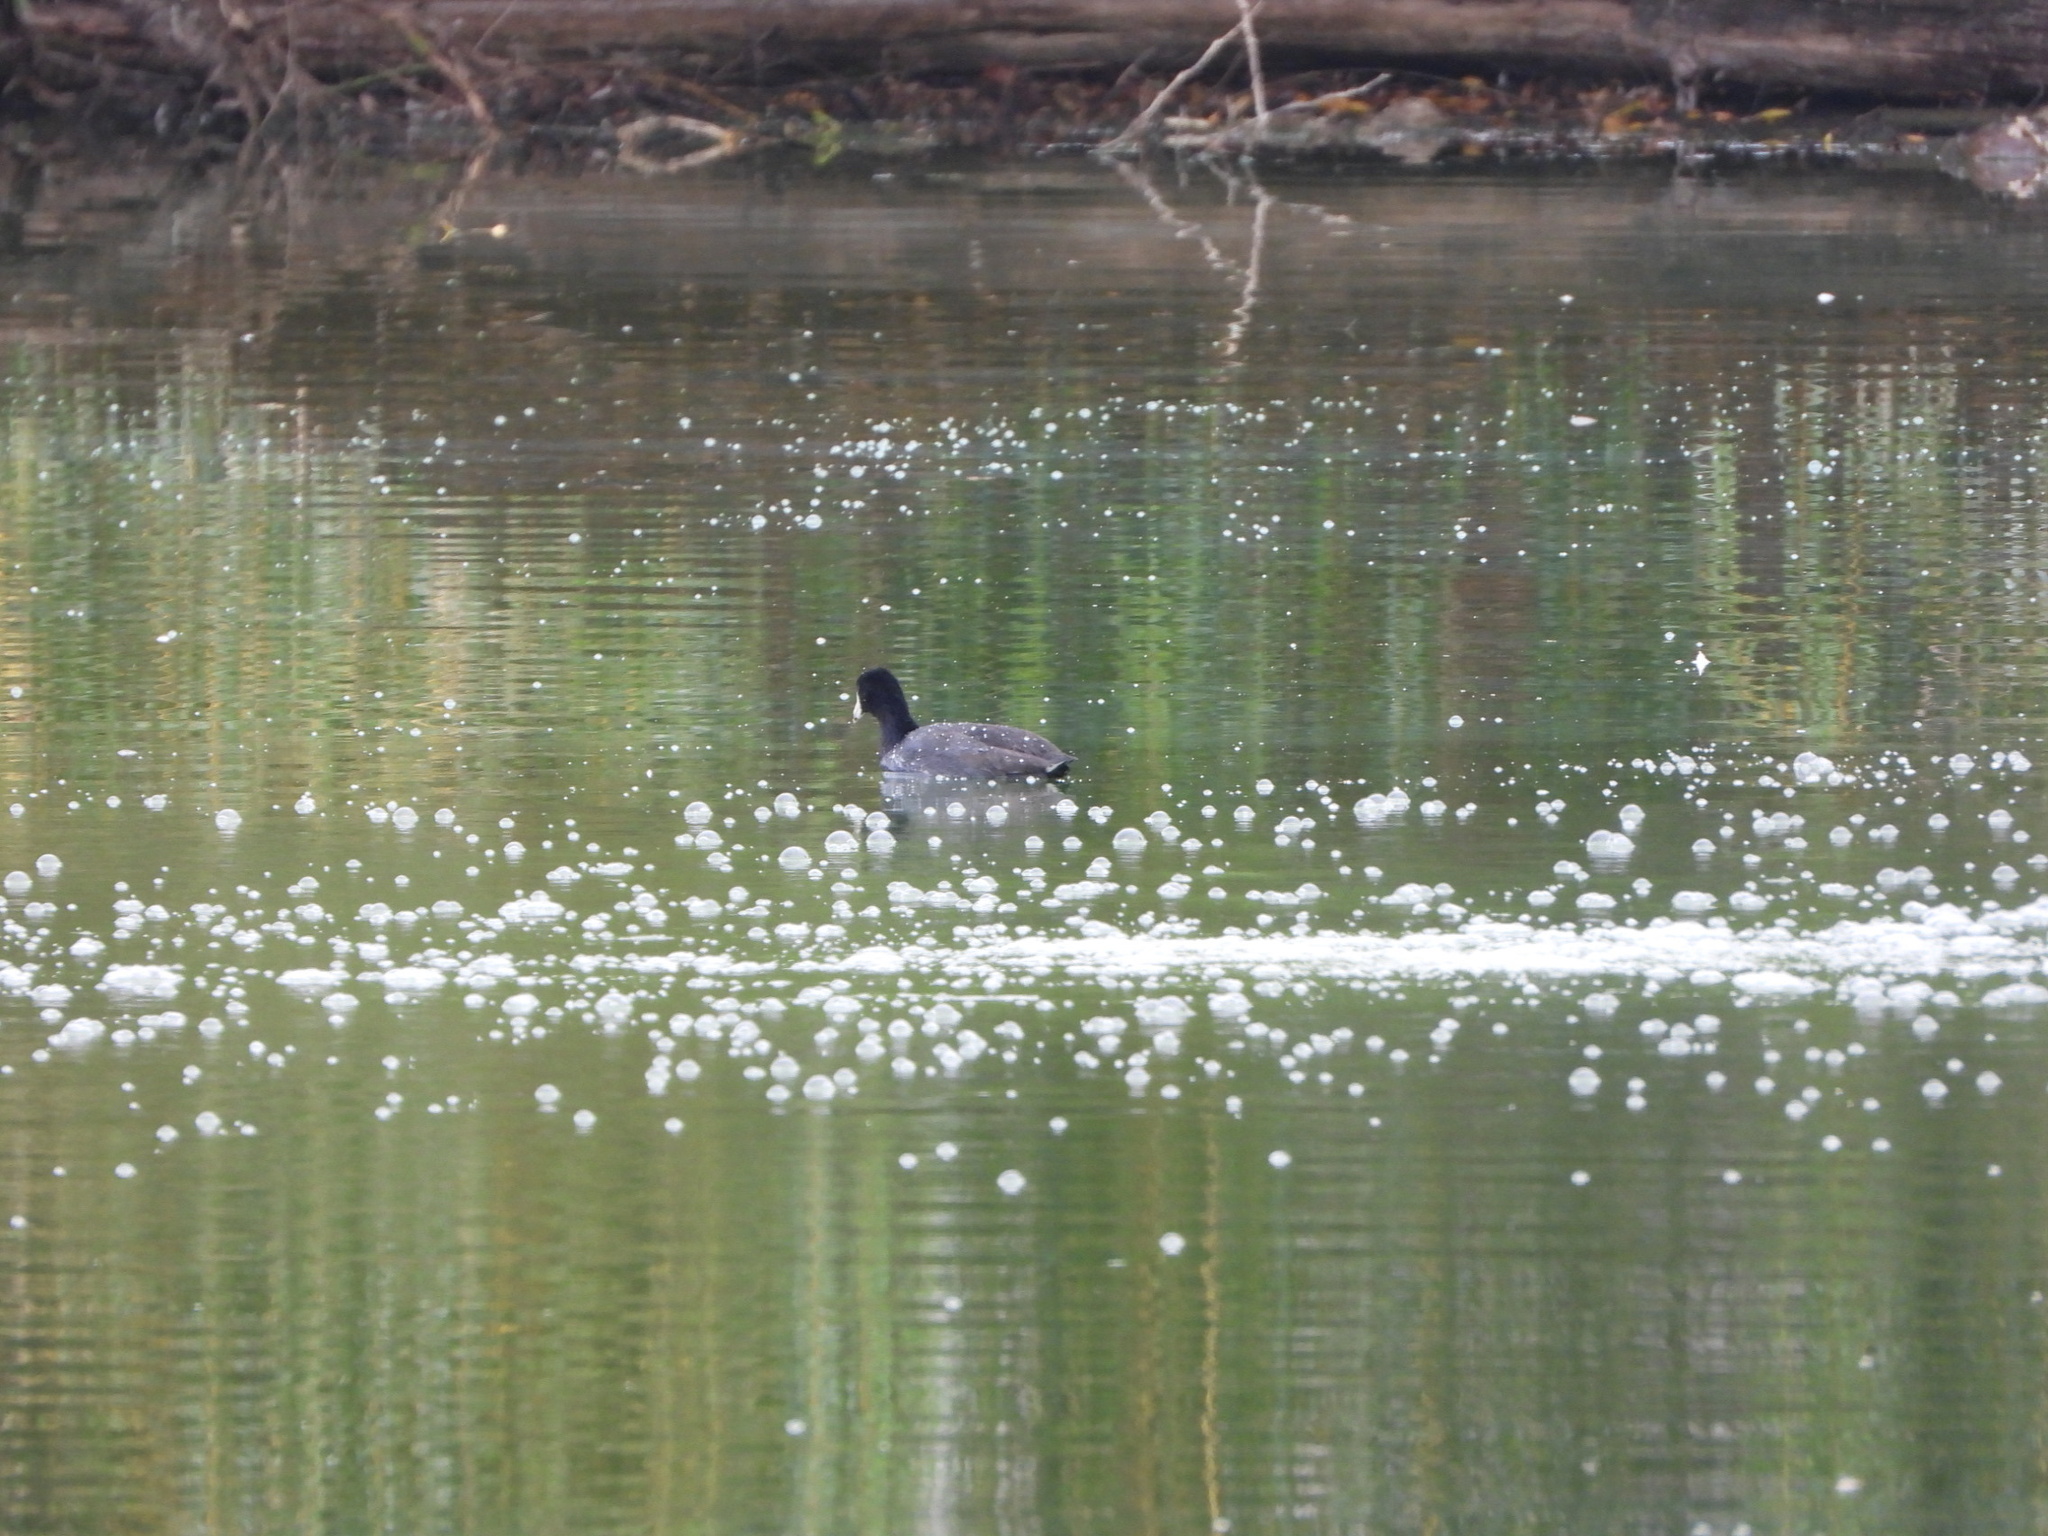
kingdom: Animalia
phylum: Chordata
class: Aves
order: Gruiformes
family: Rallidae
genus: Fulica
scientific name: Fulica americana
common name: American coot
